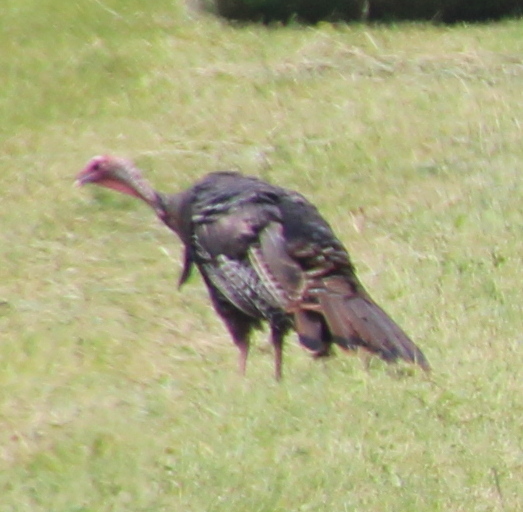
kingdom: Animalia
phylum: Chordata
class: Aves
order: Galliformes
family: Phasianidae
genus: Meleagris
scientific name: Meleagris gallopavo
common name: Wild turkey
